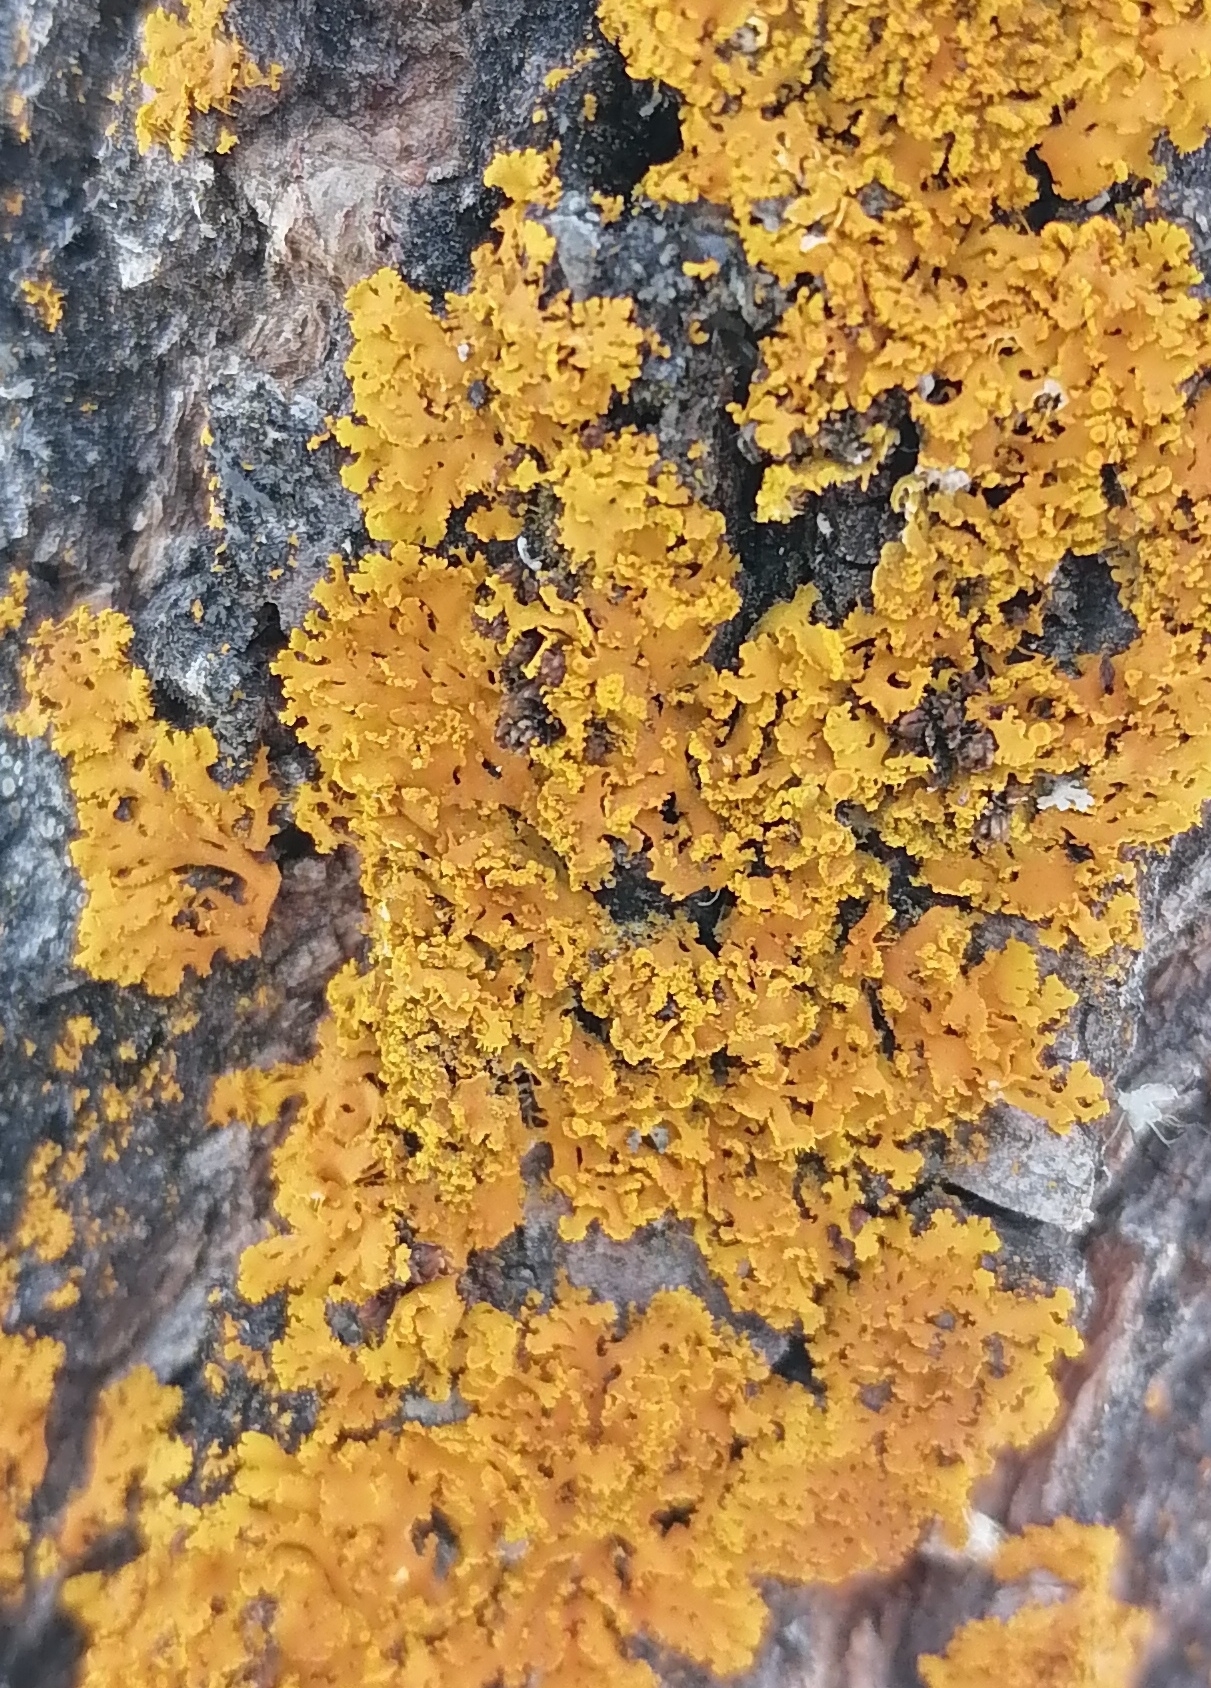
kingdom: Fungi
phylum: Ascomycota
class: Lecanoromycetes
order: Teloschistales
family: Teloschistaceae
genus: Xanthoria
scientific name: Xanthoria ulophyllodes
